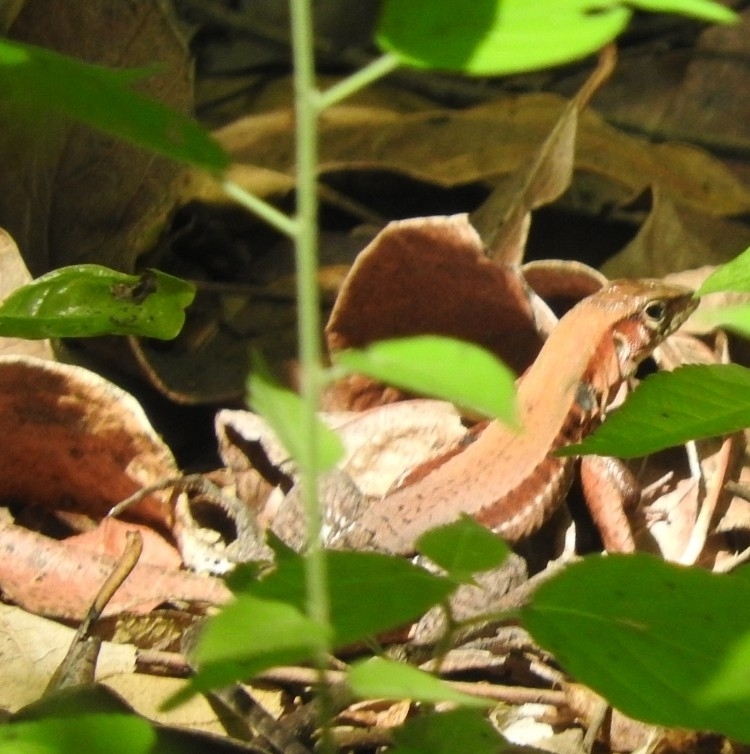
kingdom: Animalia
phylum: Chordata
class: Squamata
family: Teiidae
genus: Holcosus
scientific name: Holcosus gaigeae
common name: Rainbow ameiva
